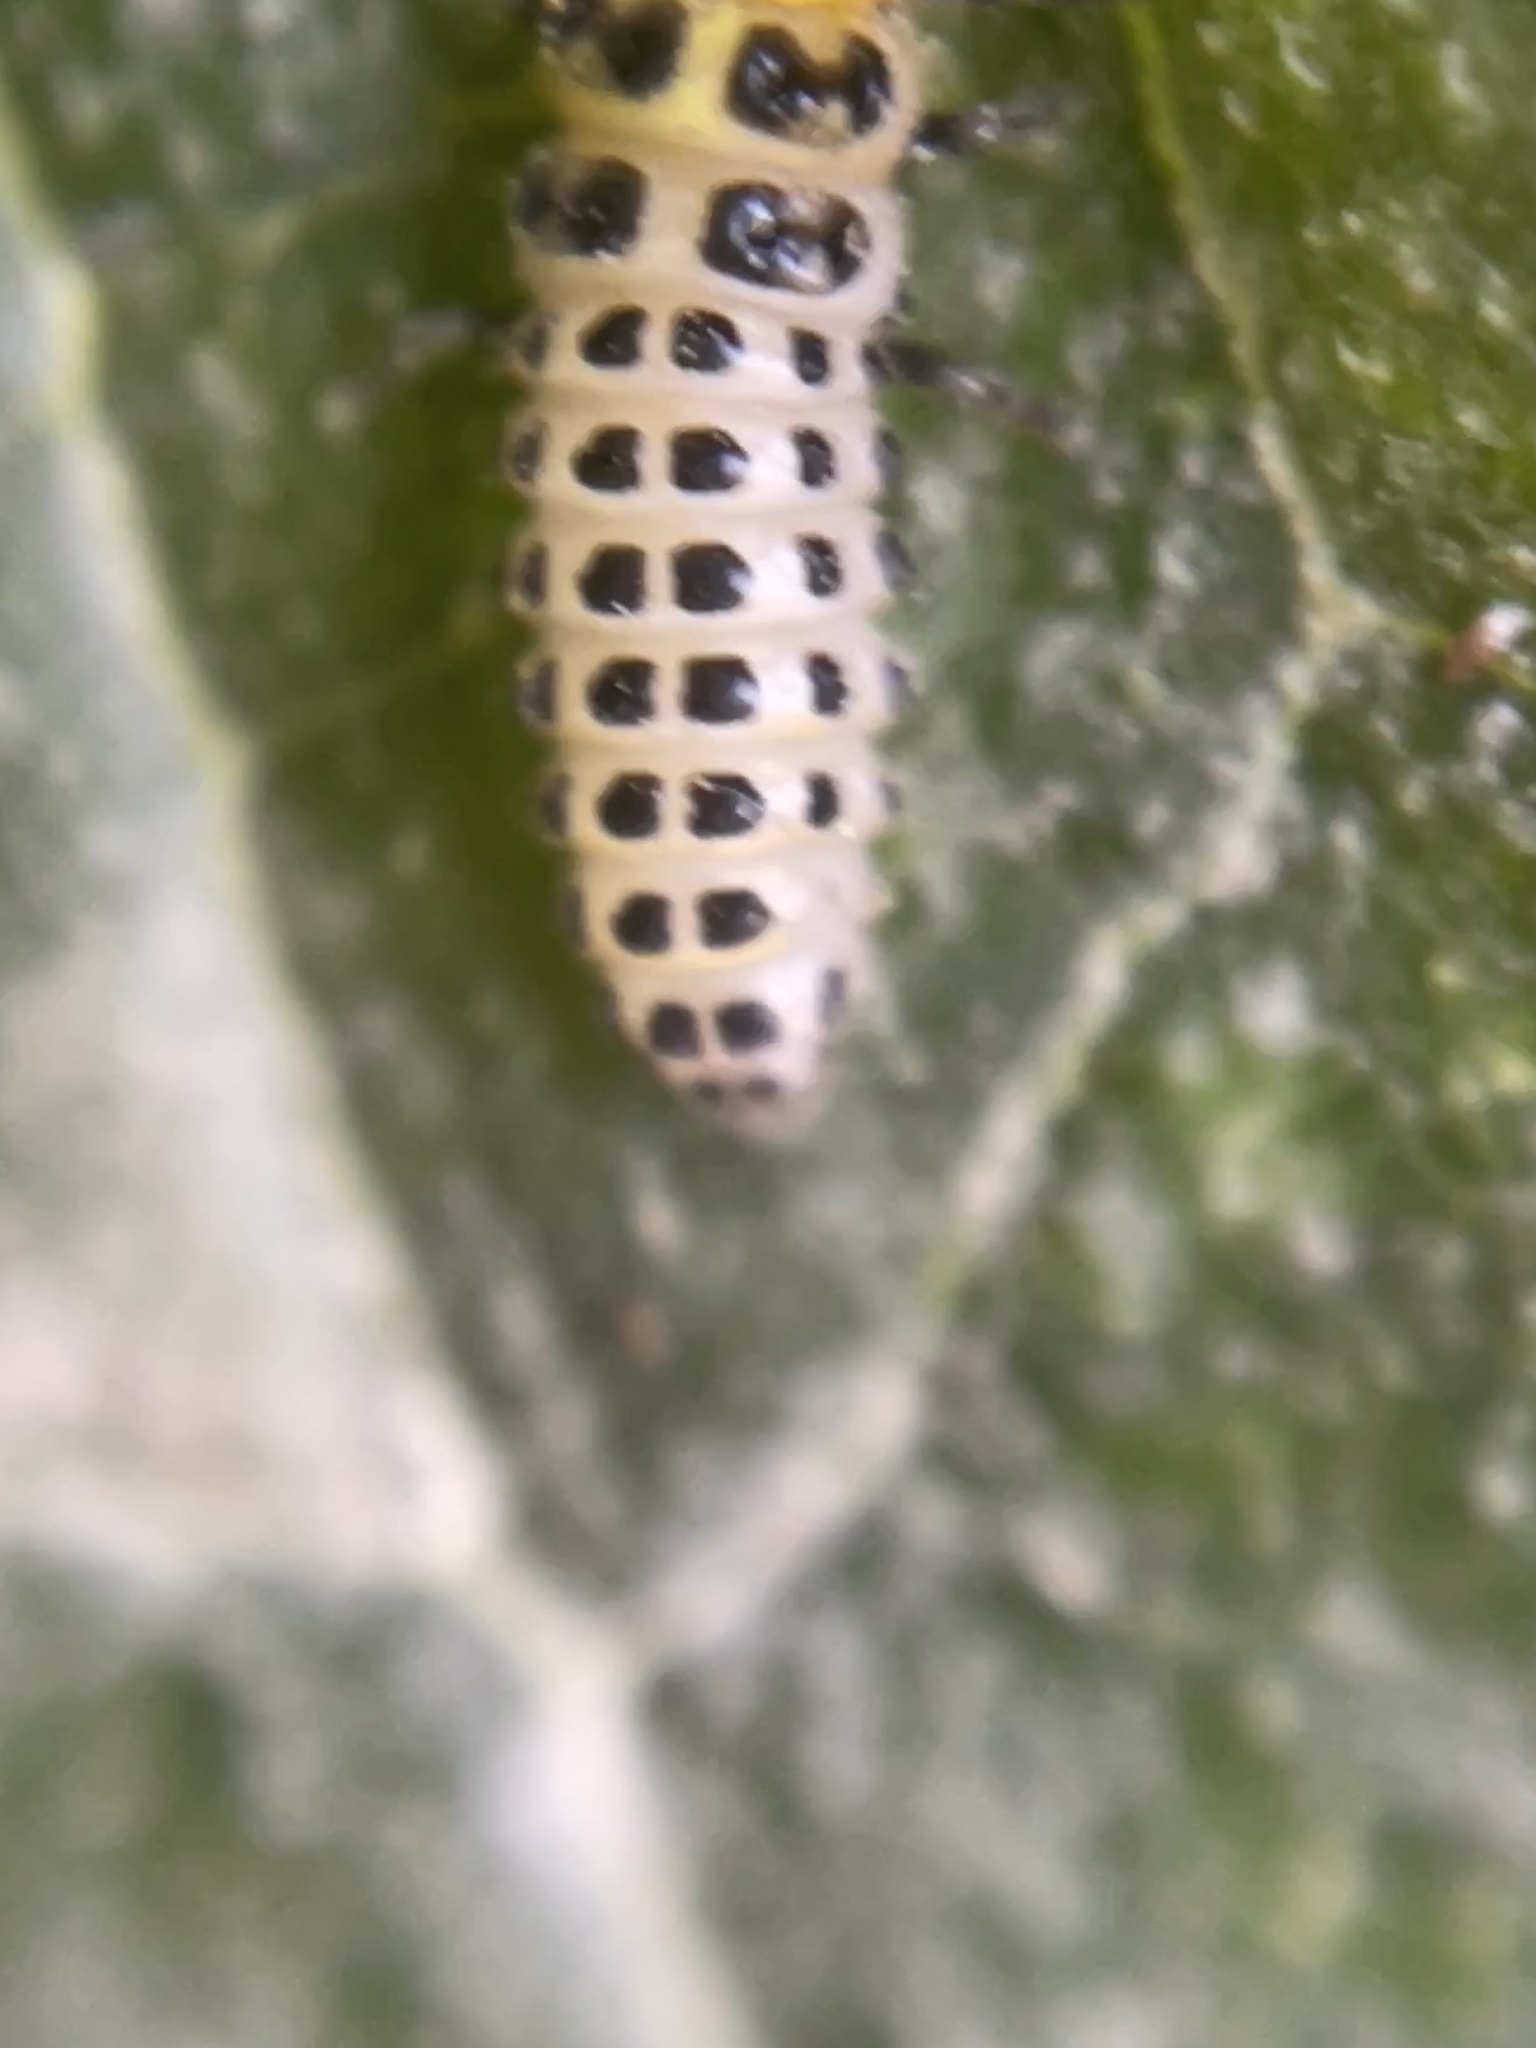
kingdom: Animalia
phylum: Arthropoda
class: Insecta
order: Coleoptera
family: Coccinellidae
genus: Illeis
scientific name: Illeis galbula
